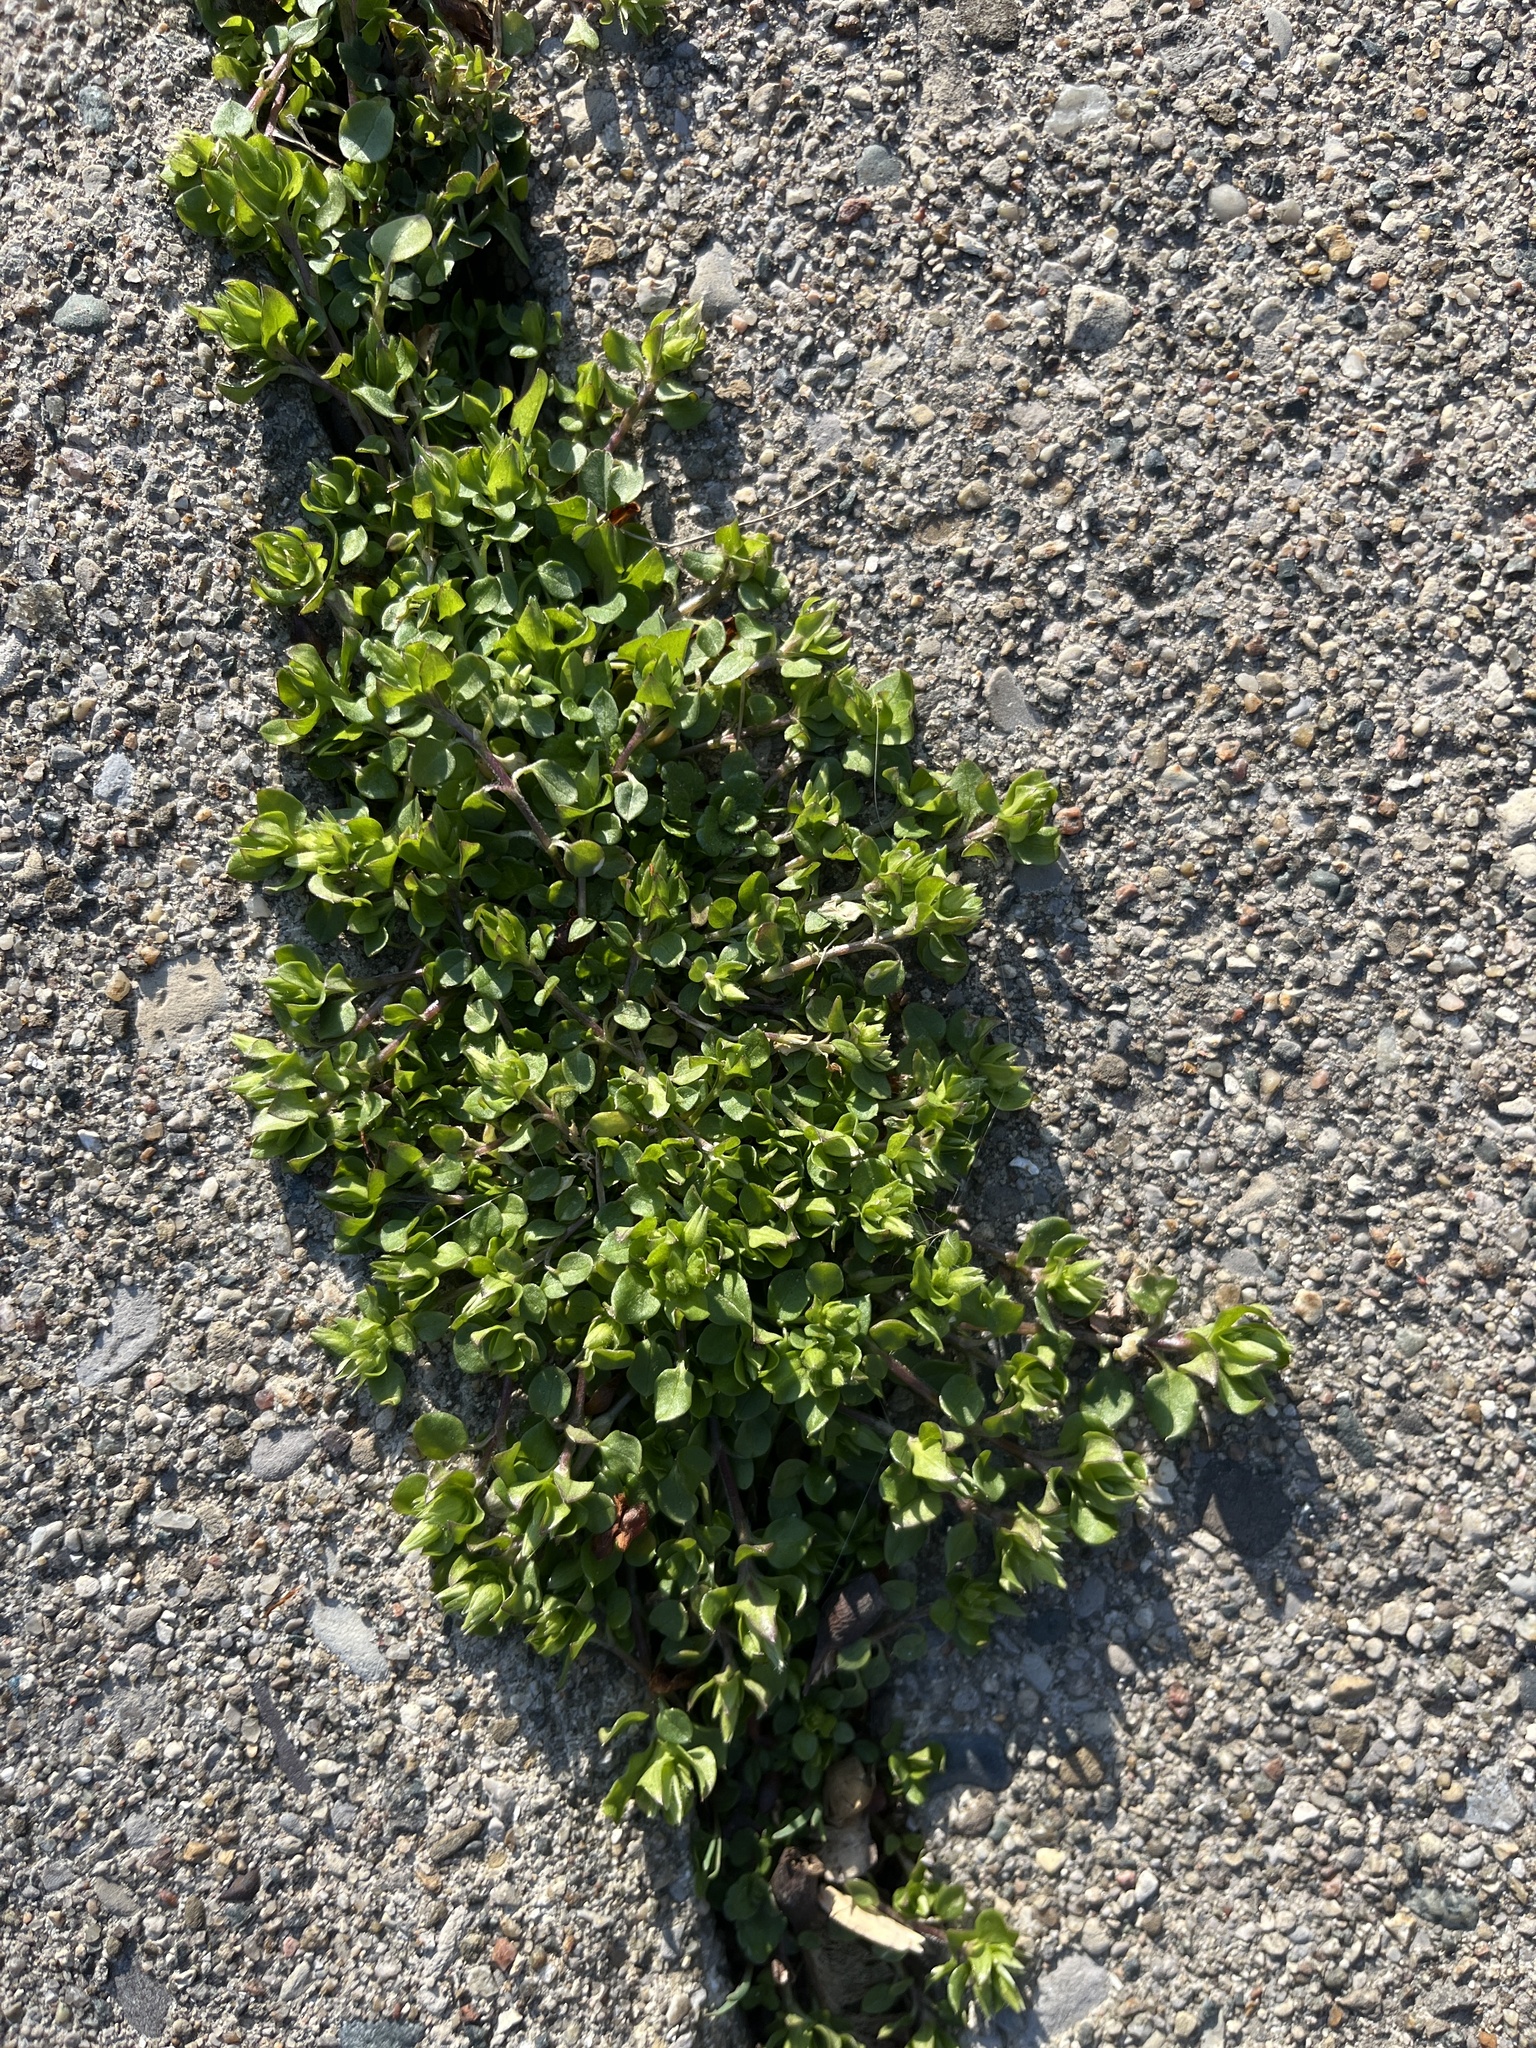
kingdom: Plantae
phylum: Tracheophyta
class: Magnoliopsida
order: Caryophyllales
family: Caryophyllaceae
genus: Stellaria
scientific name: Stellaria media
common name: Common chickweed
